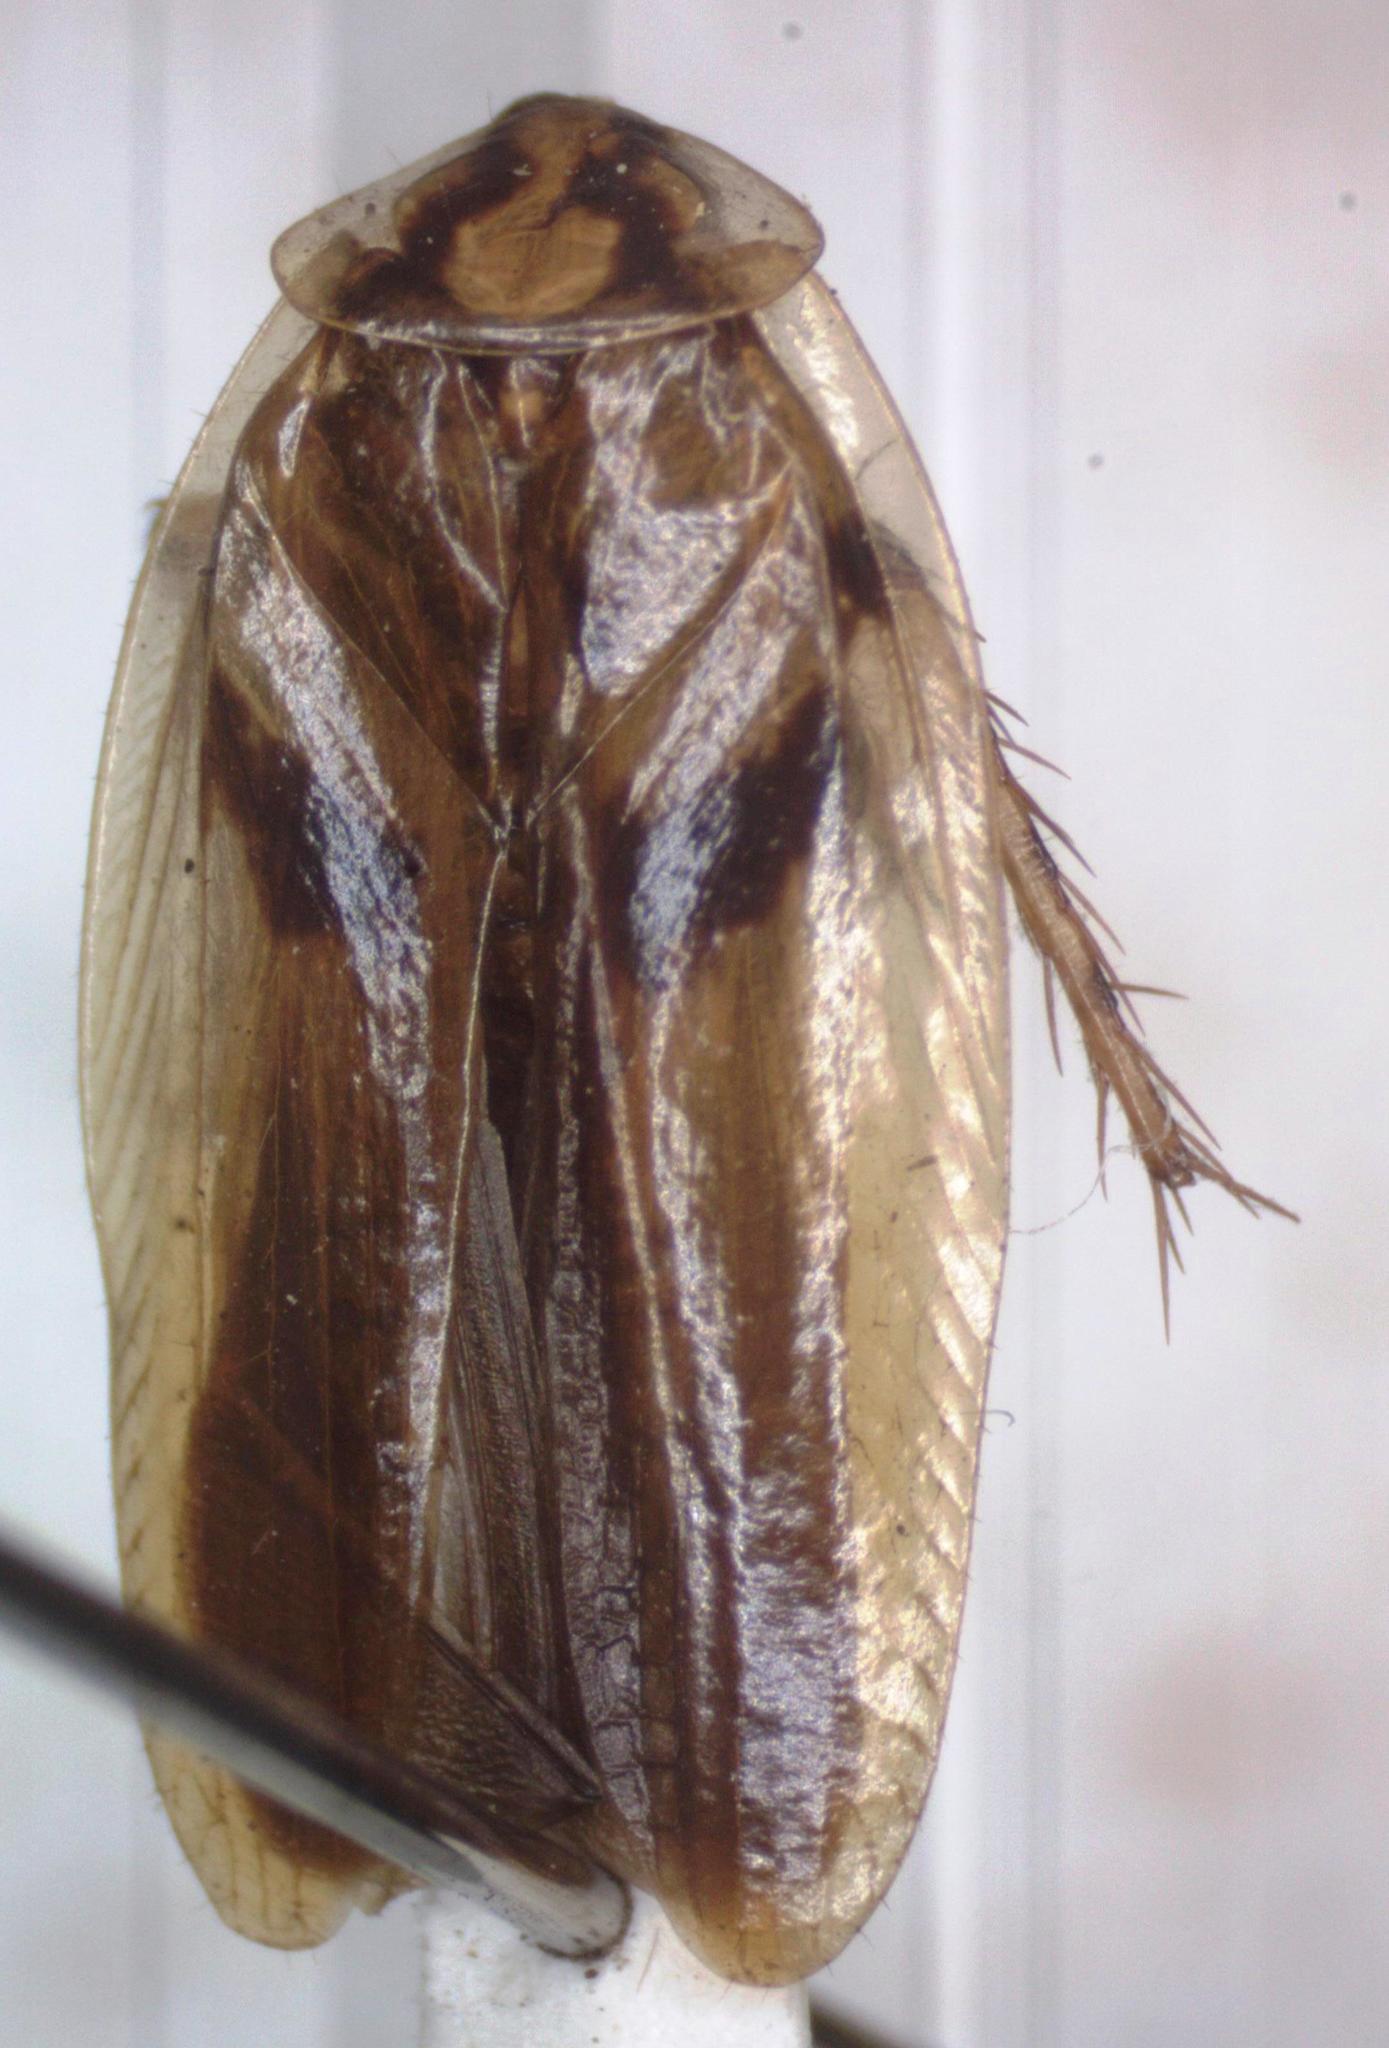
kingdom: Animalia
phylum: Arthropoda
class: Insecta
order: Blattodea
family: Anaplectidae
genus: Anaplecta
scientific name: Anaplecta mexicana
